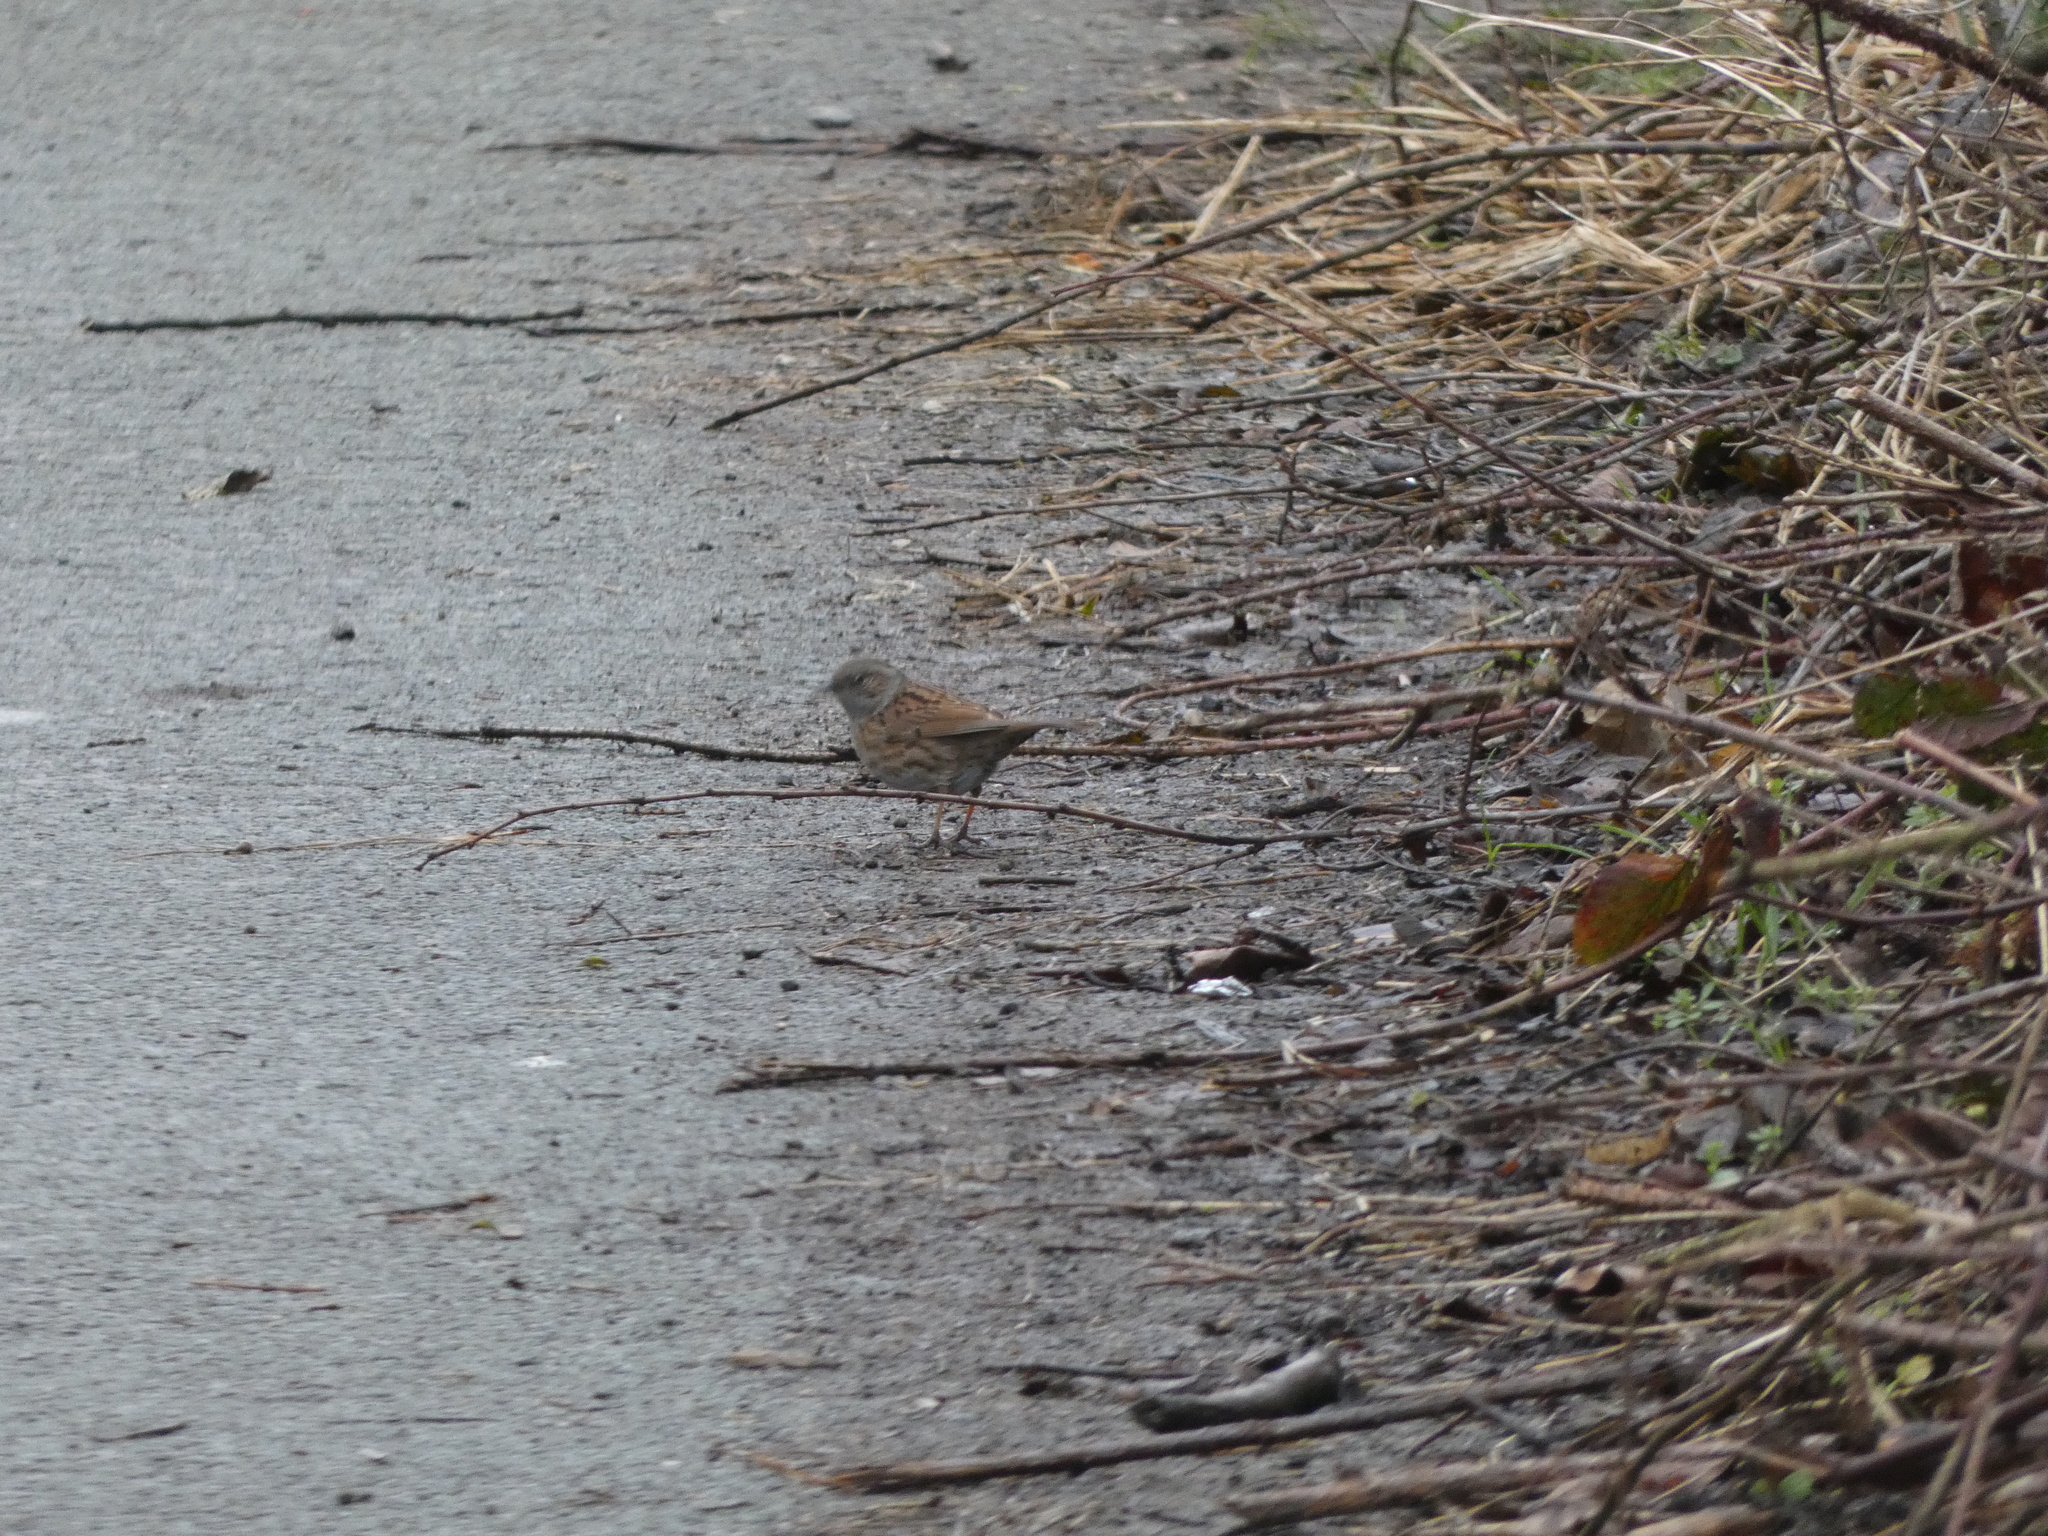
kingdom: Animalia
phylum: Chordata
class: Aves
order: Passeriformes
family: Prunellidae
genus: Prunella
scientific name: Prunella modularis
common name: Dunnock
